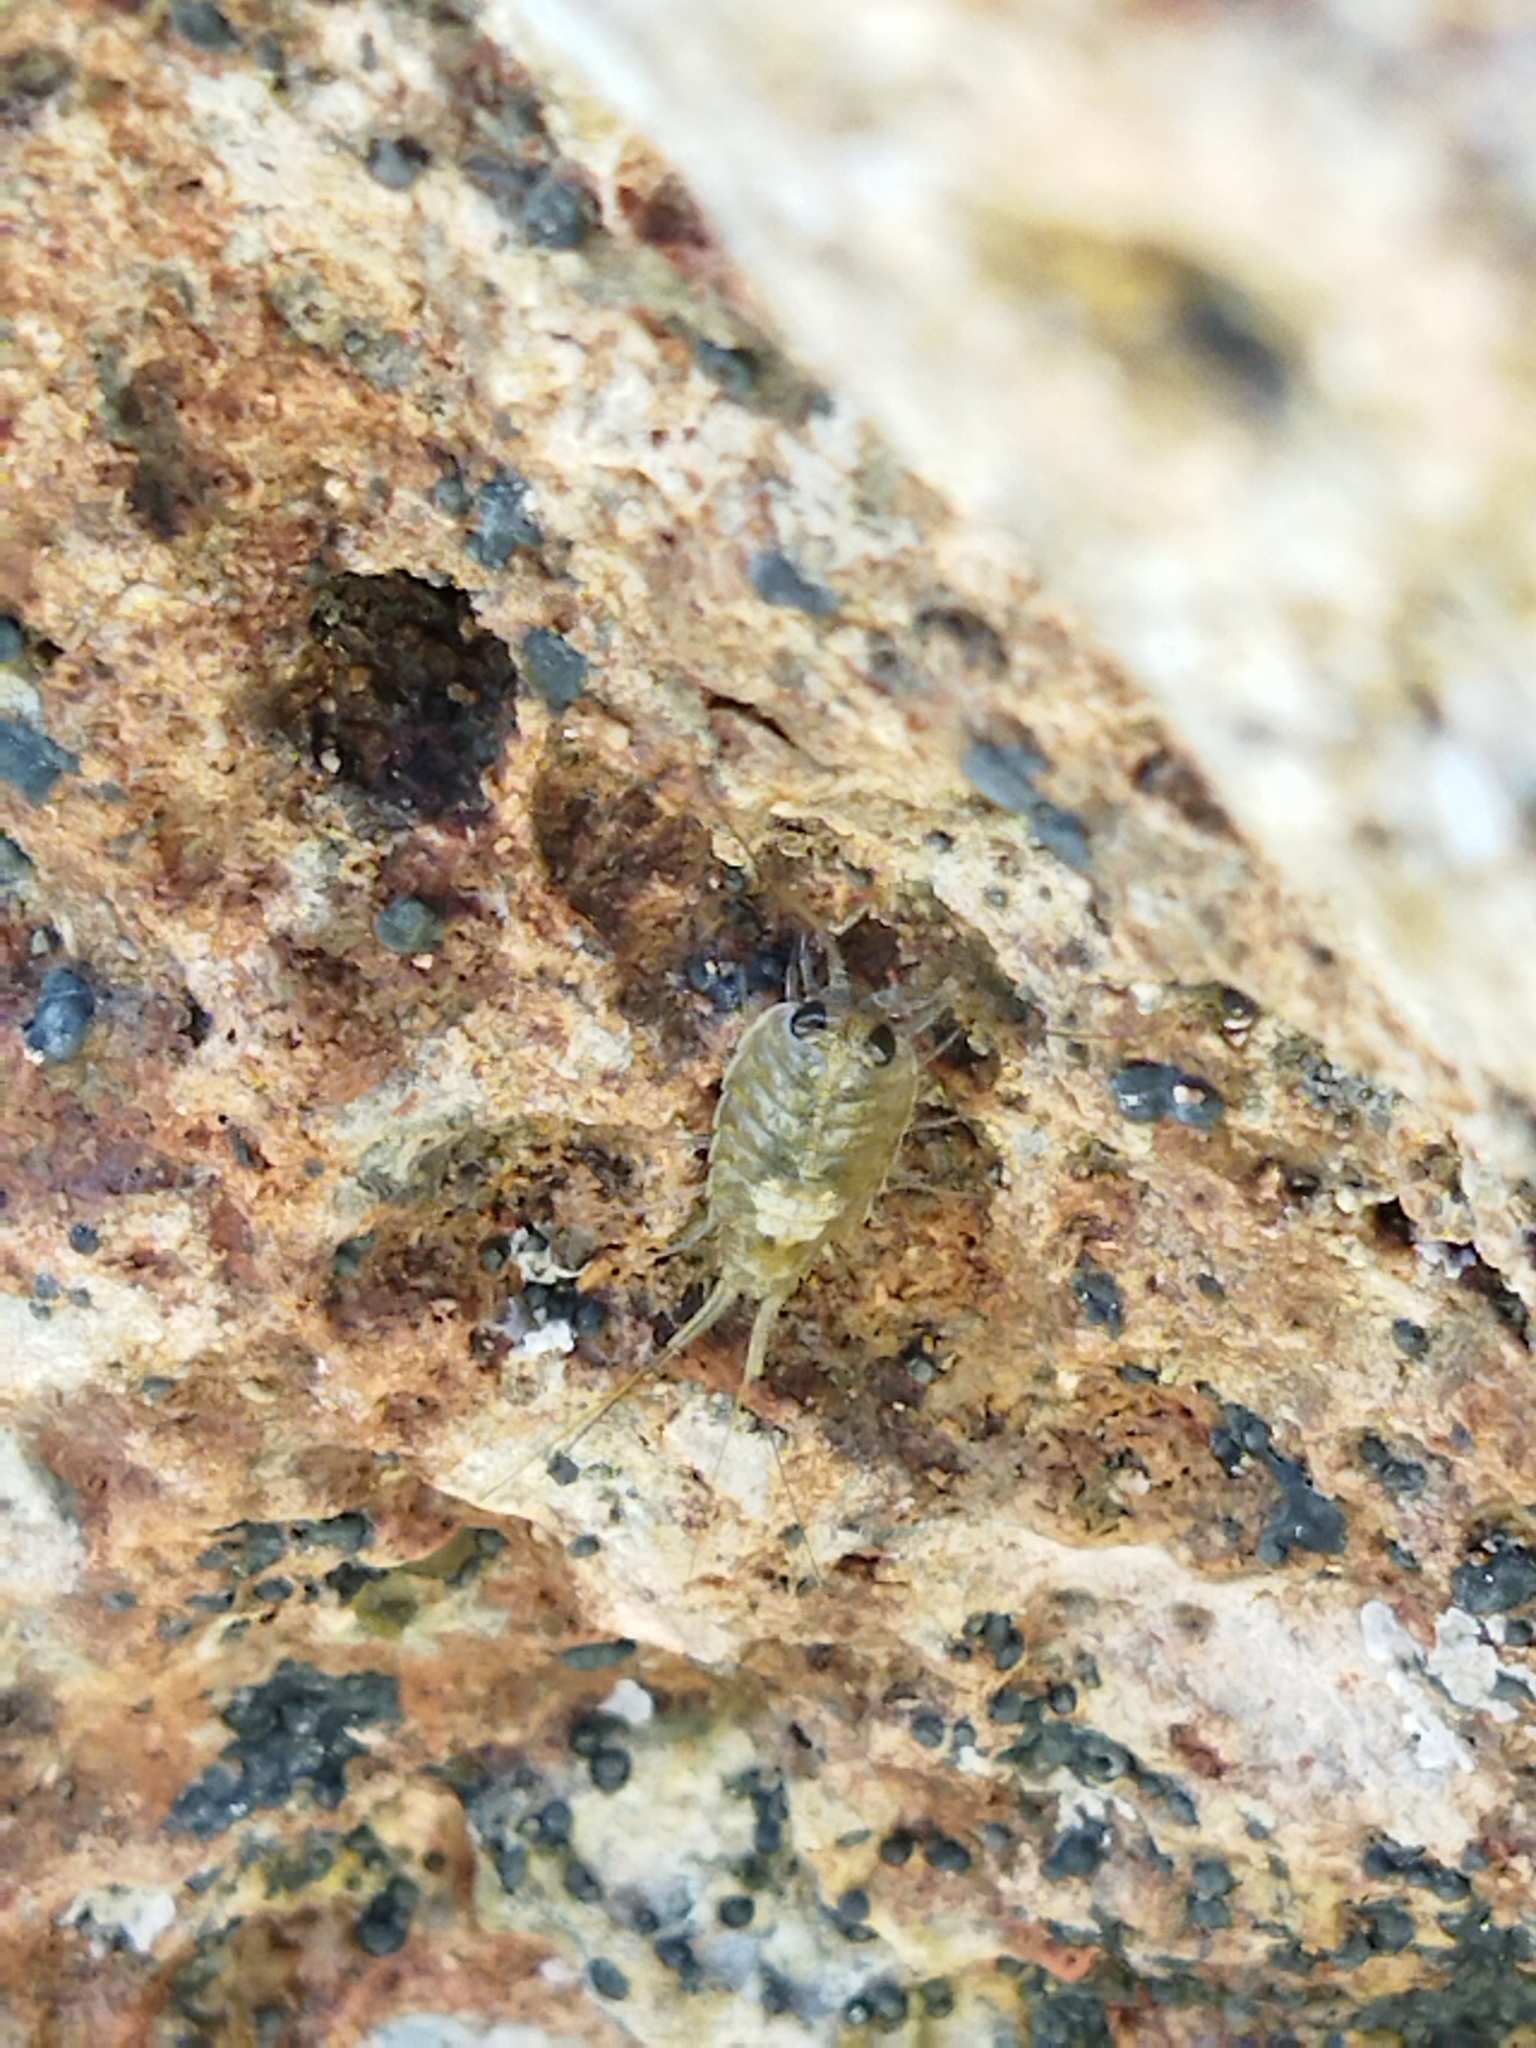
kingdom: Animalia
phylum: Arthropoda
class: Malacostraca
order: Isopoda
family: Ligiidae
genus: Ligia
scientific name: Ligia italica
